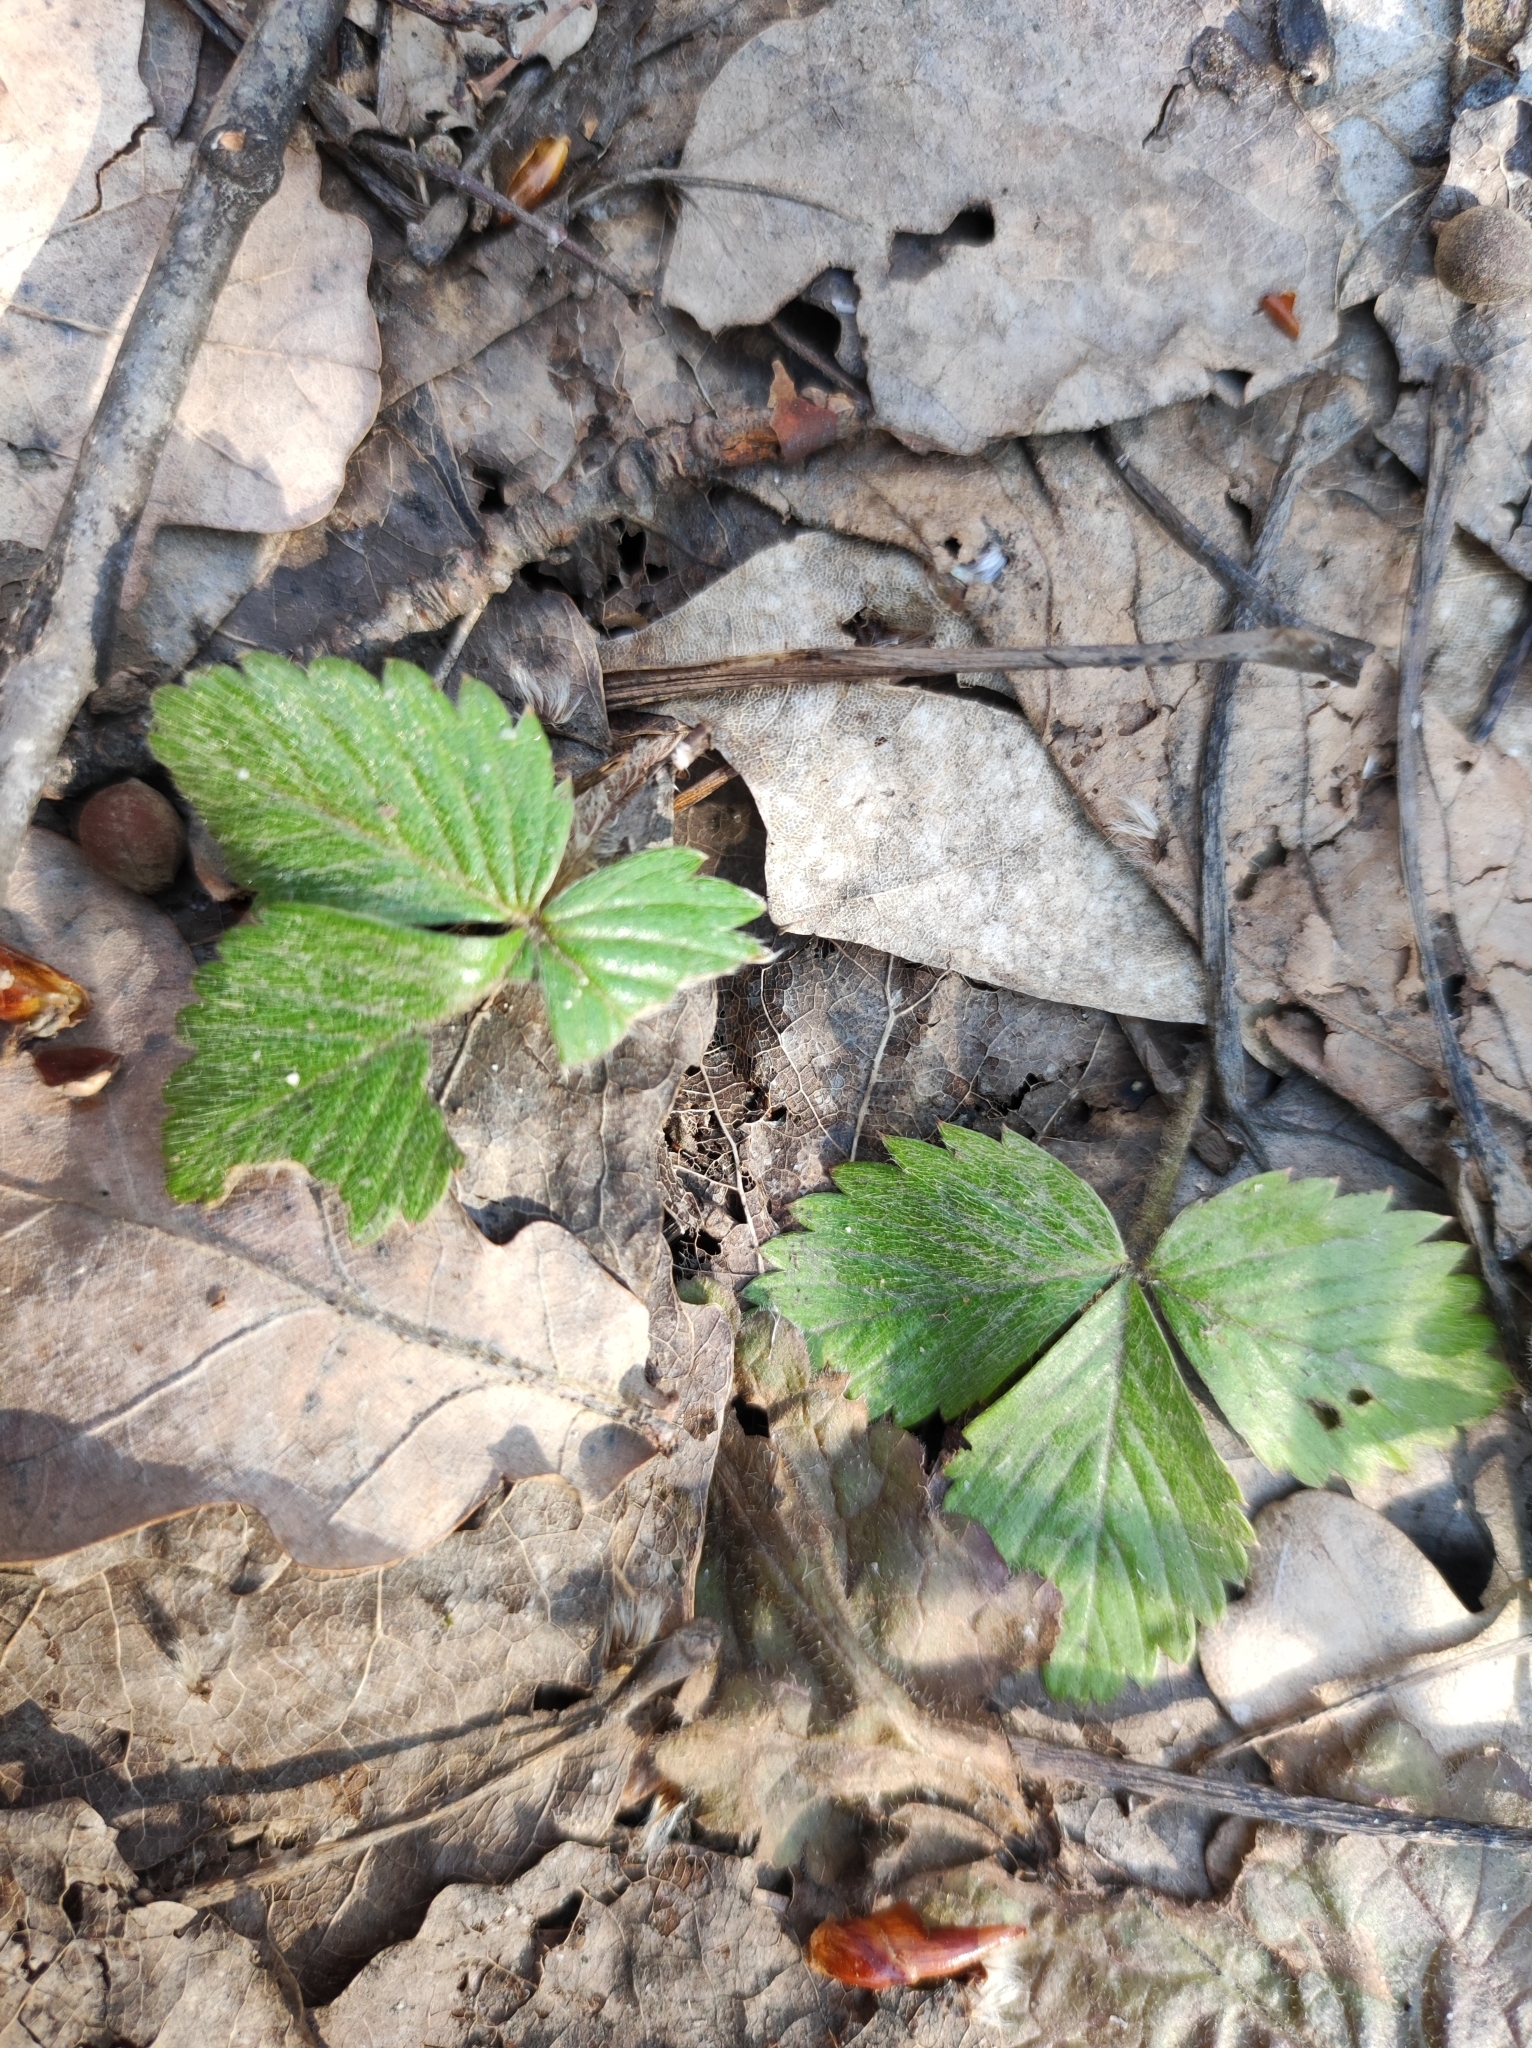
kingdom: Plantae
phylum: Tracheophyta
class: Magnoliopsida
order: Rosales
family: Rosaceae
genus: Fragaria
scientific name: Fragaria vesca
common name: Wild strawberry
